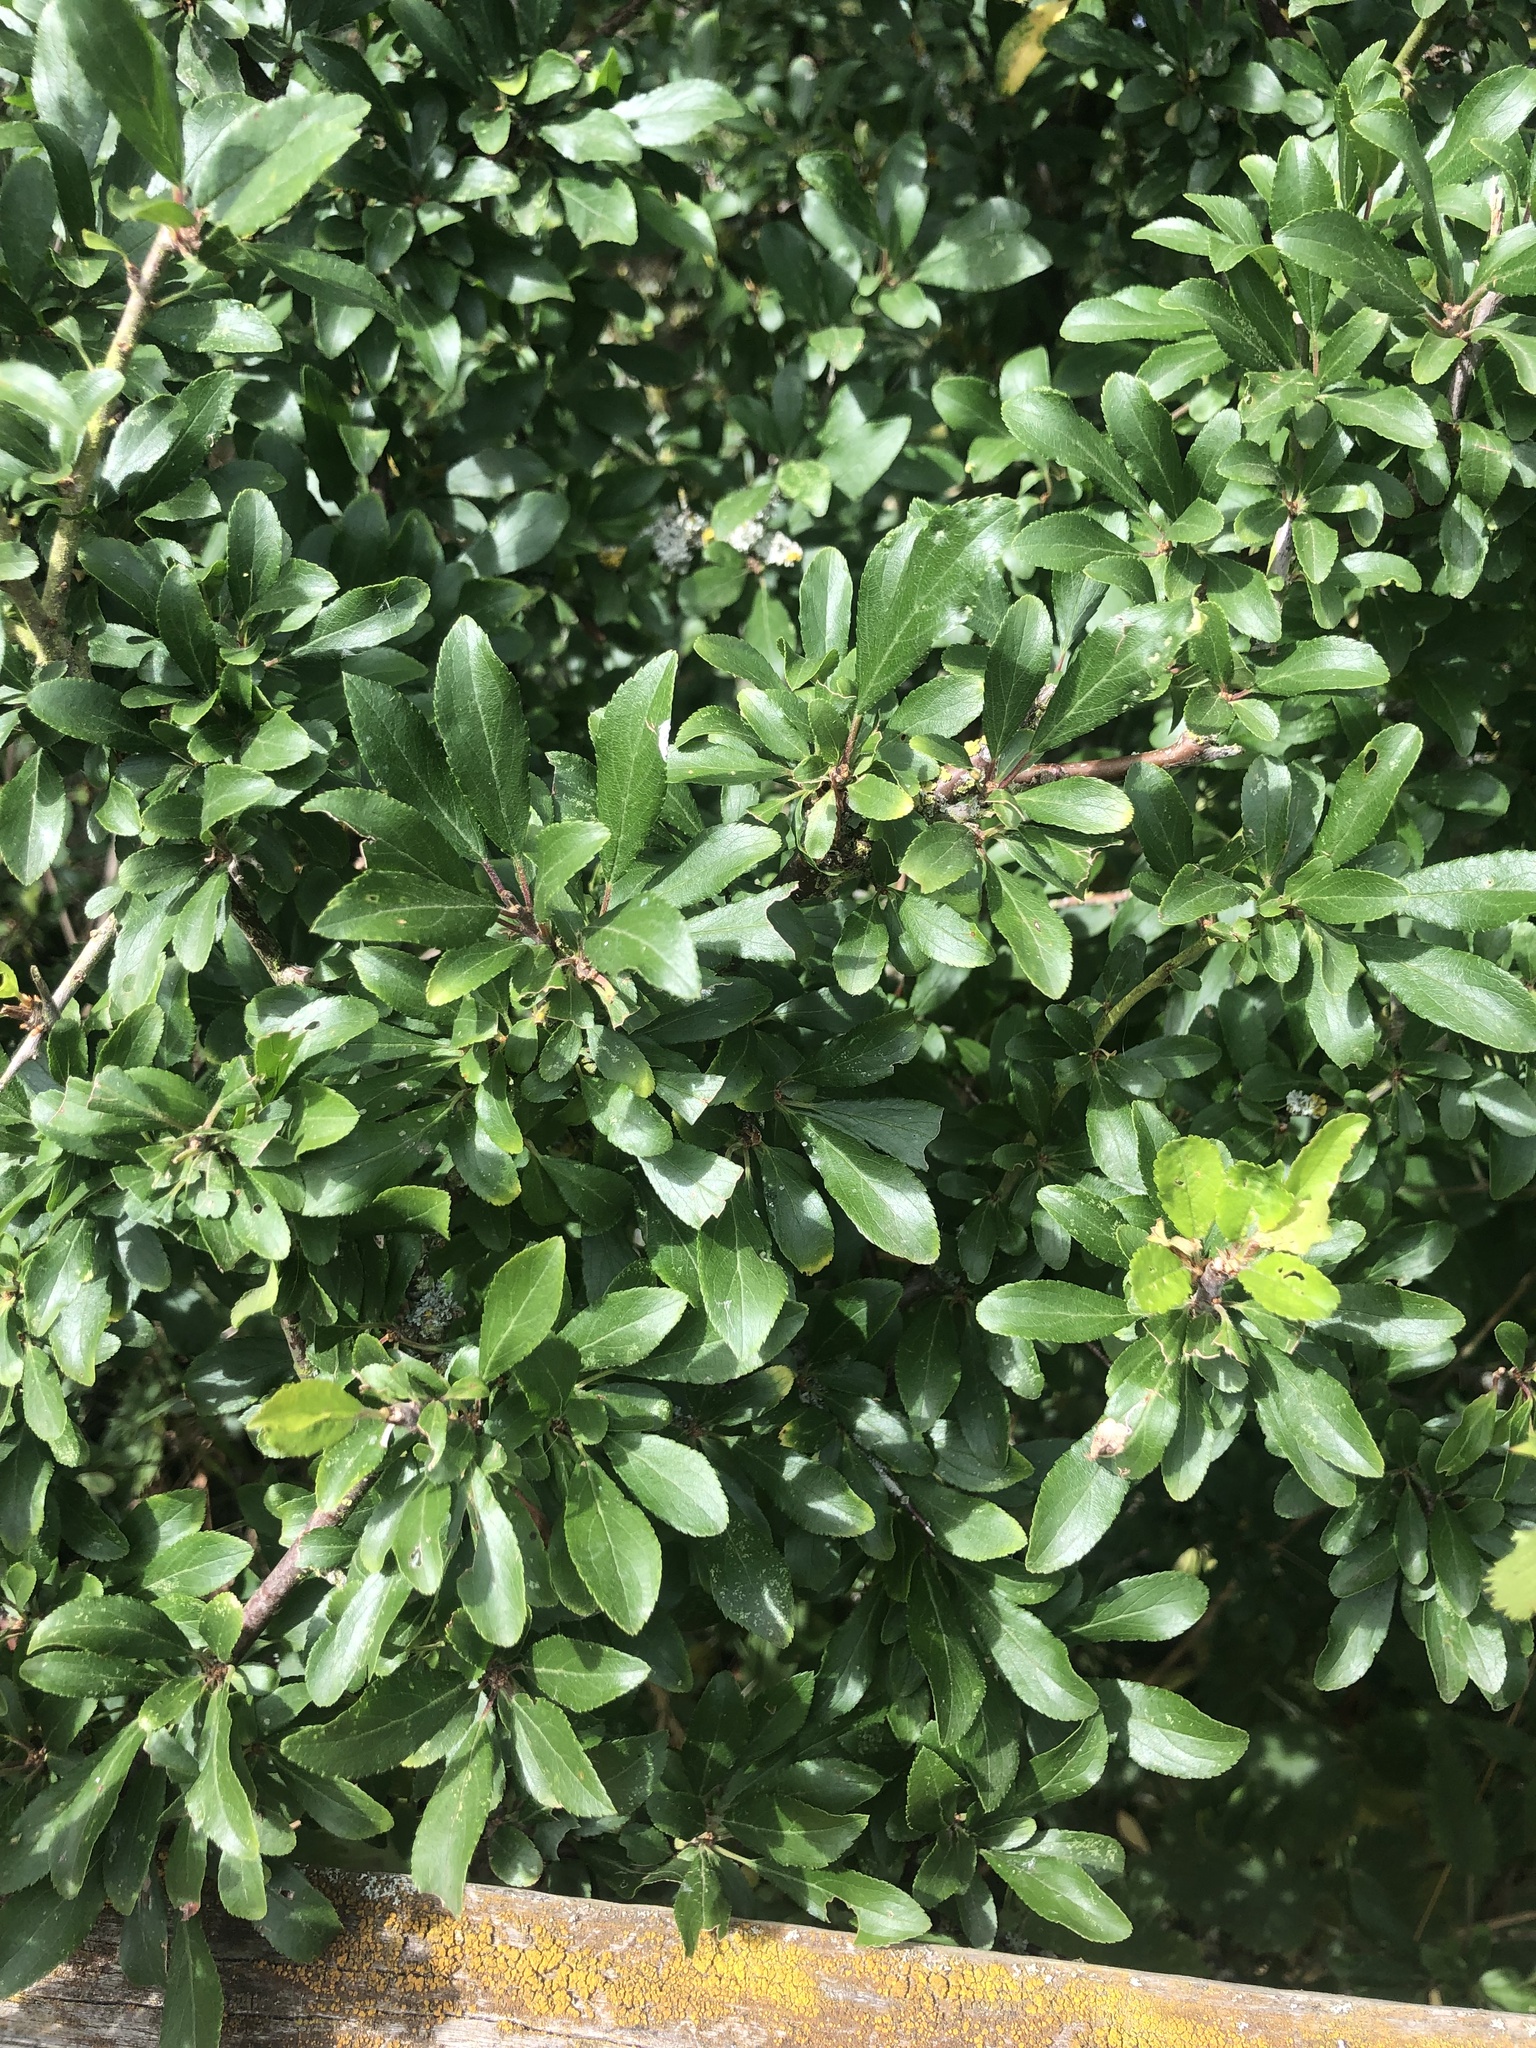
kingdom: Plantae
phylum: Tracheophyta
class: Magnoliopsida
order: Rosales
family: Rosaceae
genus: Prunus
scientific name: Prunus spinosa
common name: Blackthorn
